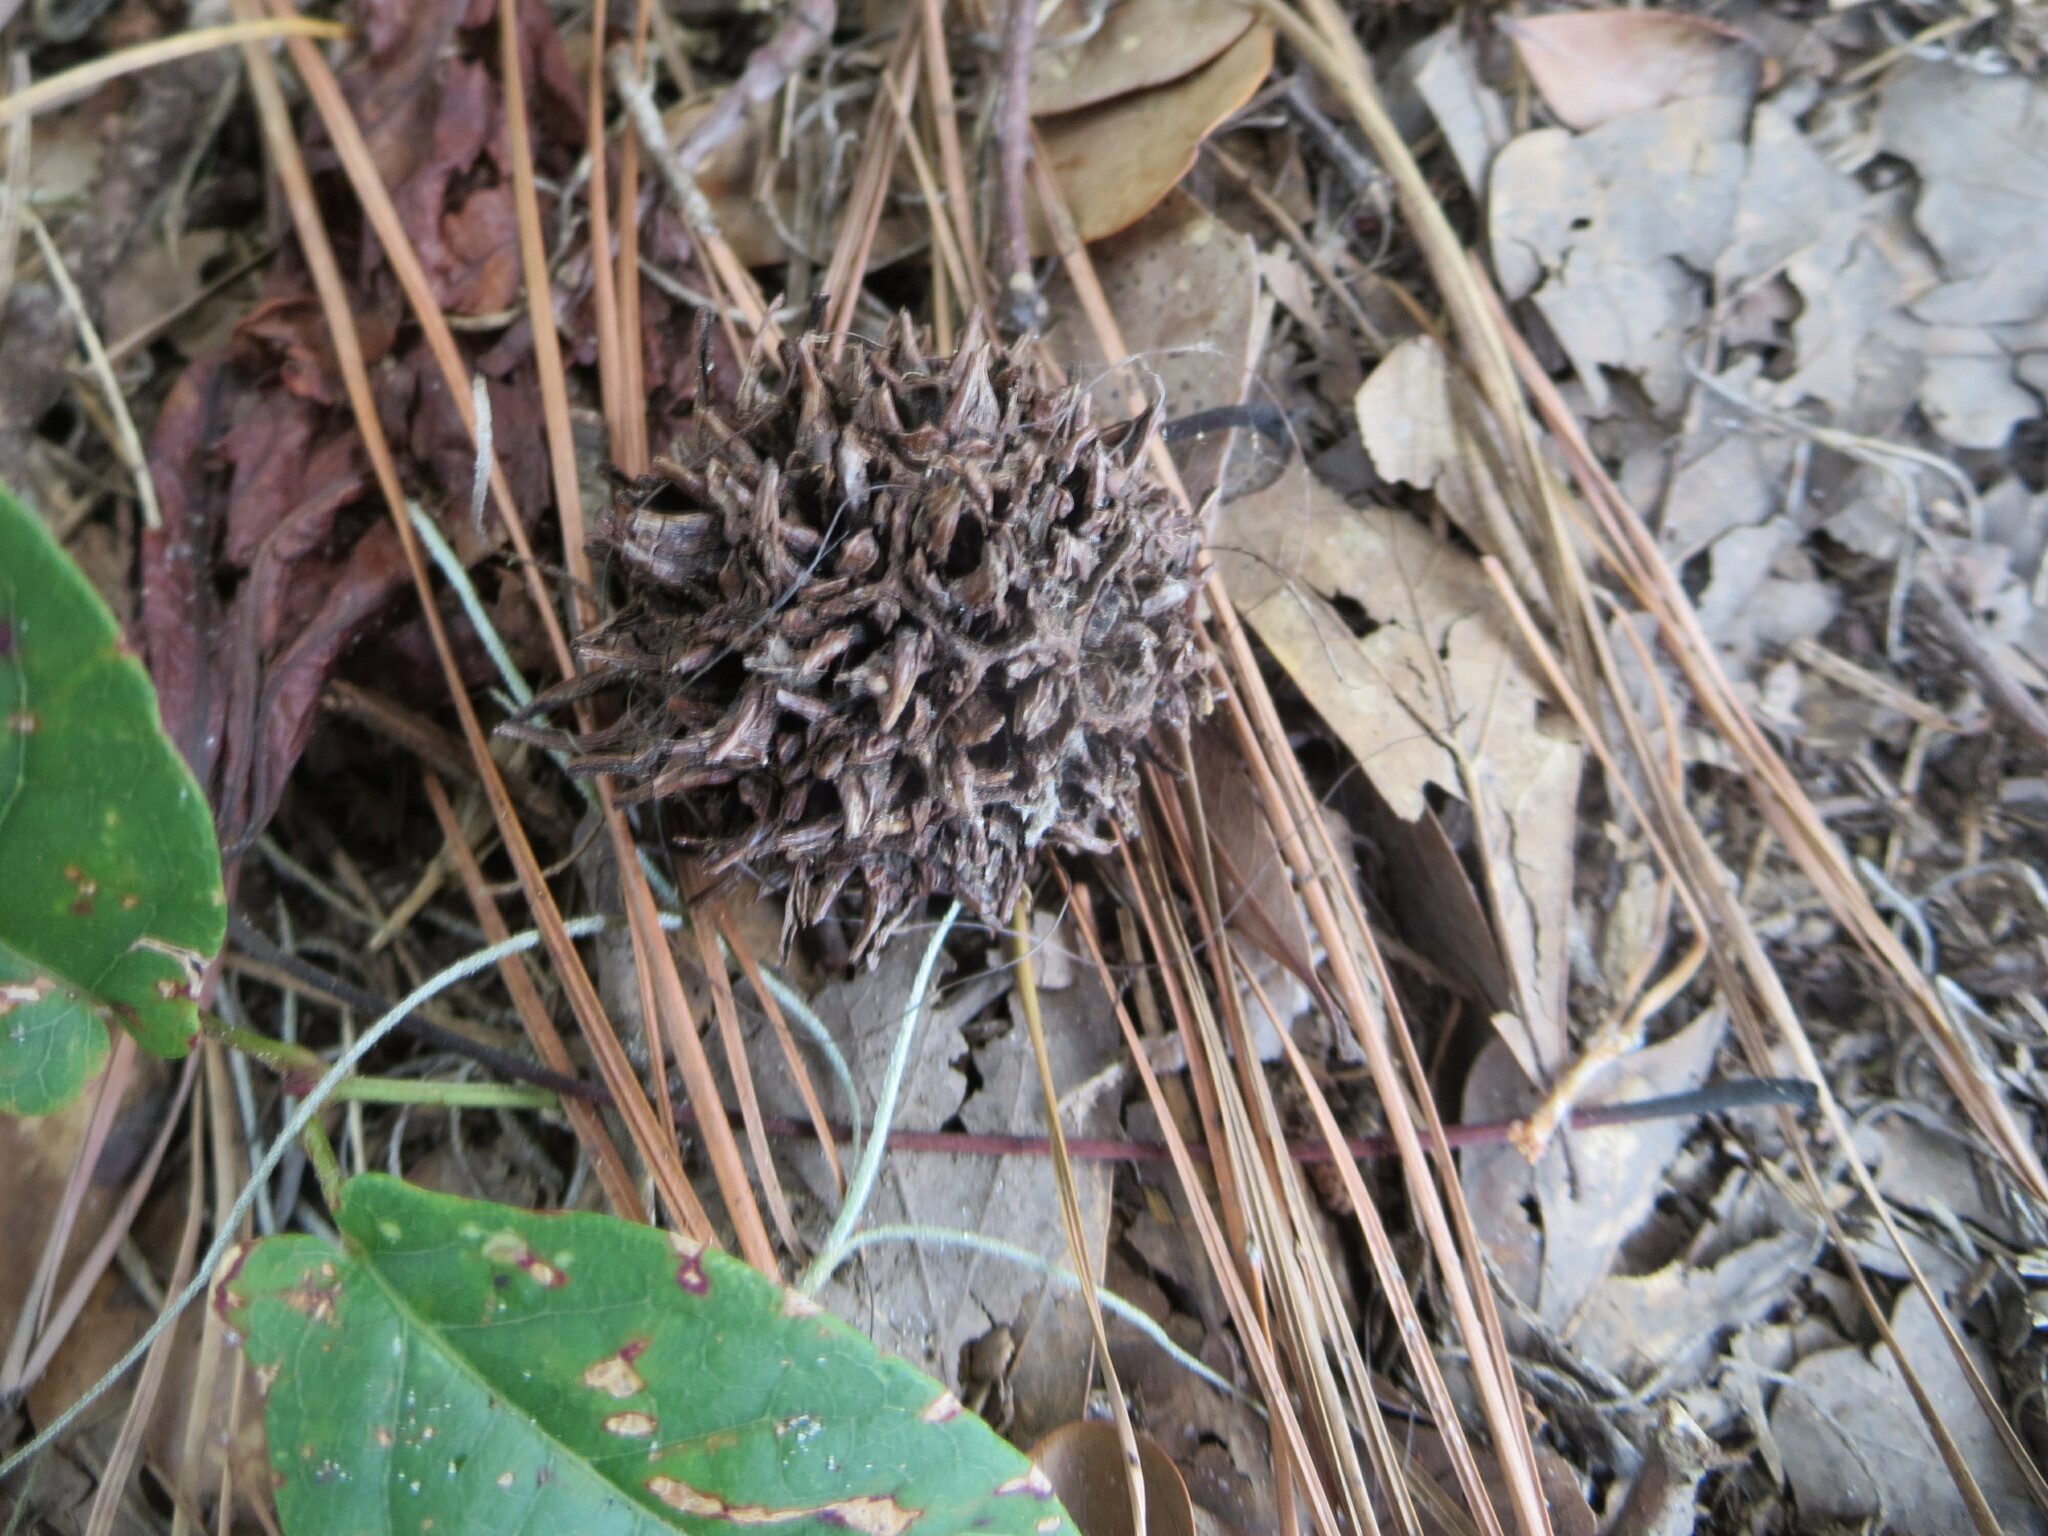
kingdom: Plantae
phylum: Tracheophyta
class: Magnoliopsida
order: Saxifragales
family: Altingiaceae
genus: Liquidambar
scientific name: Liquidambar styraciflua
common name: Sweet gum
